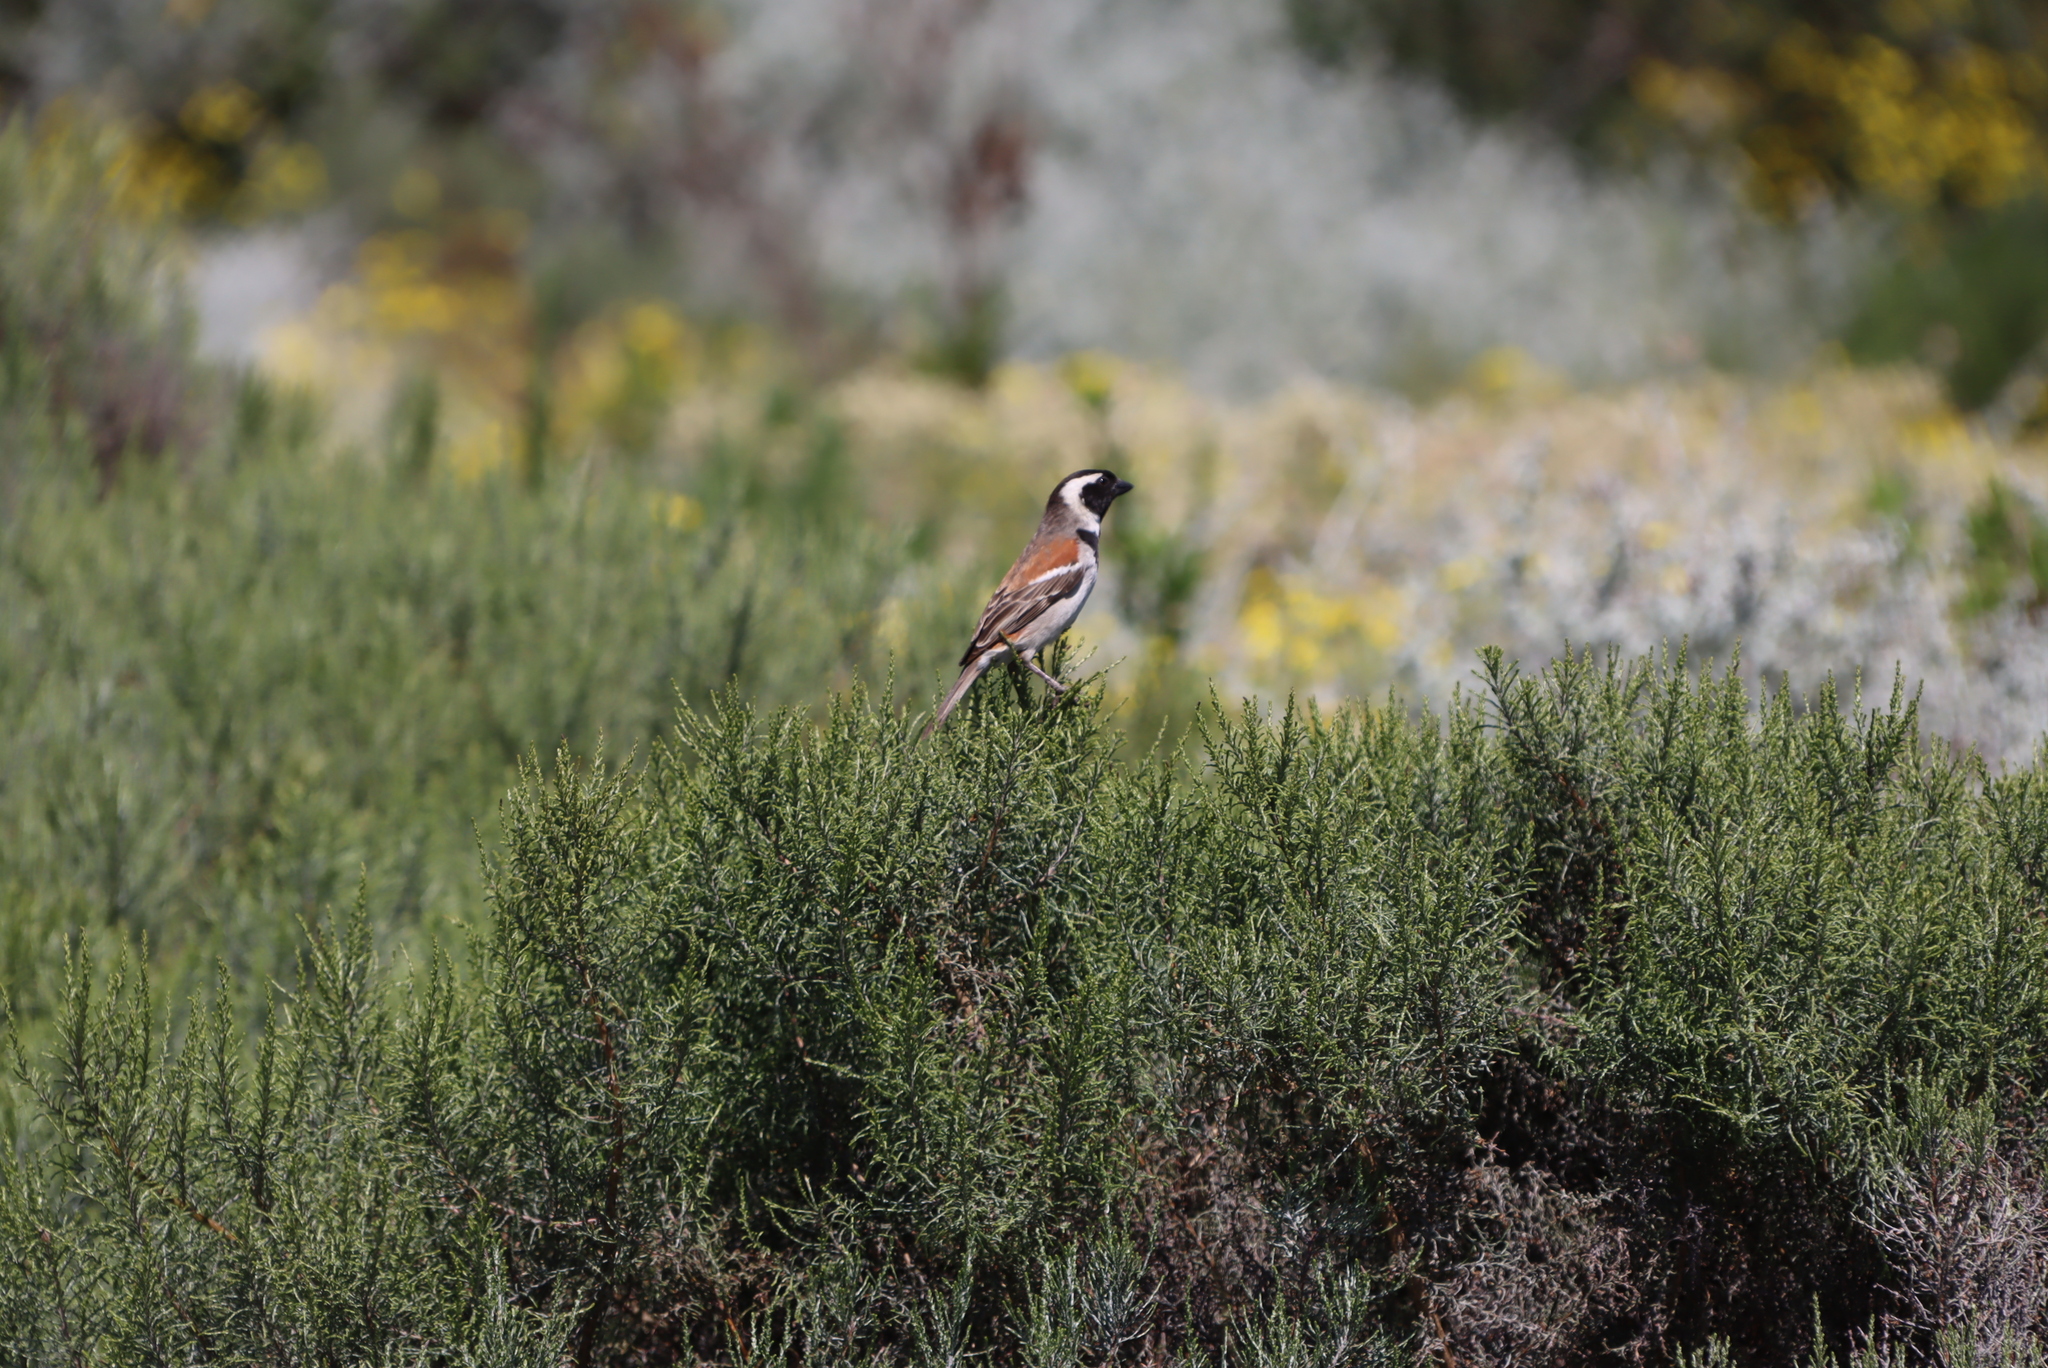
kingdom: Plantae
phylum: Tracheophyta
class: Magnoliopsida
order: Asterales
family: Asteraceae
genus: Dicerothamnus
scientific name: Dicerothamnus rhinocerotis
